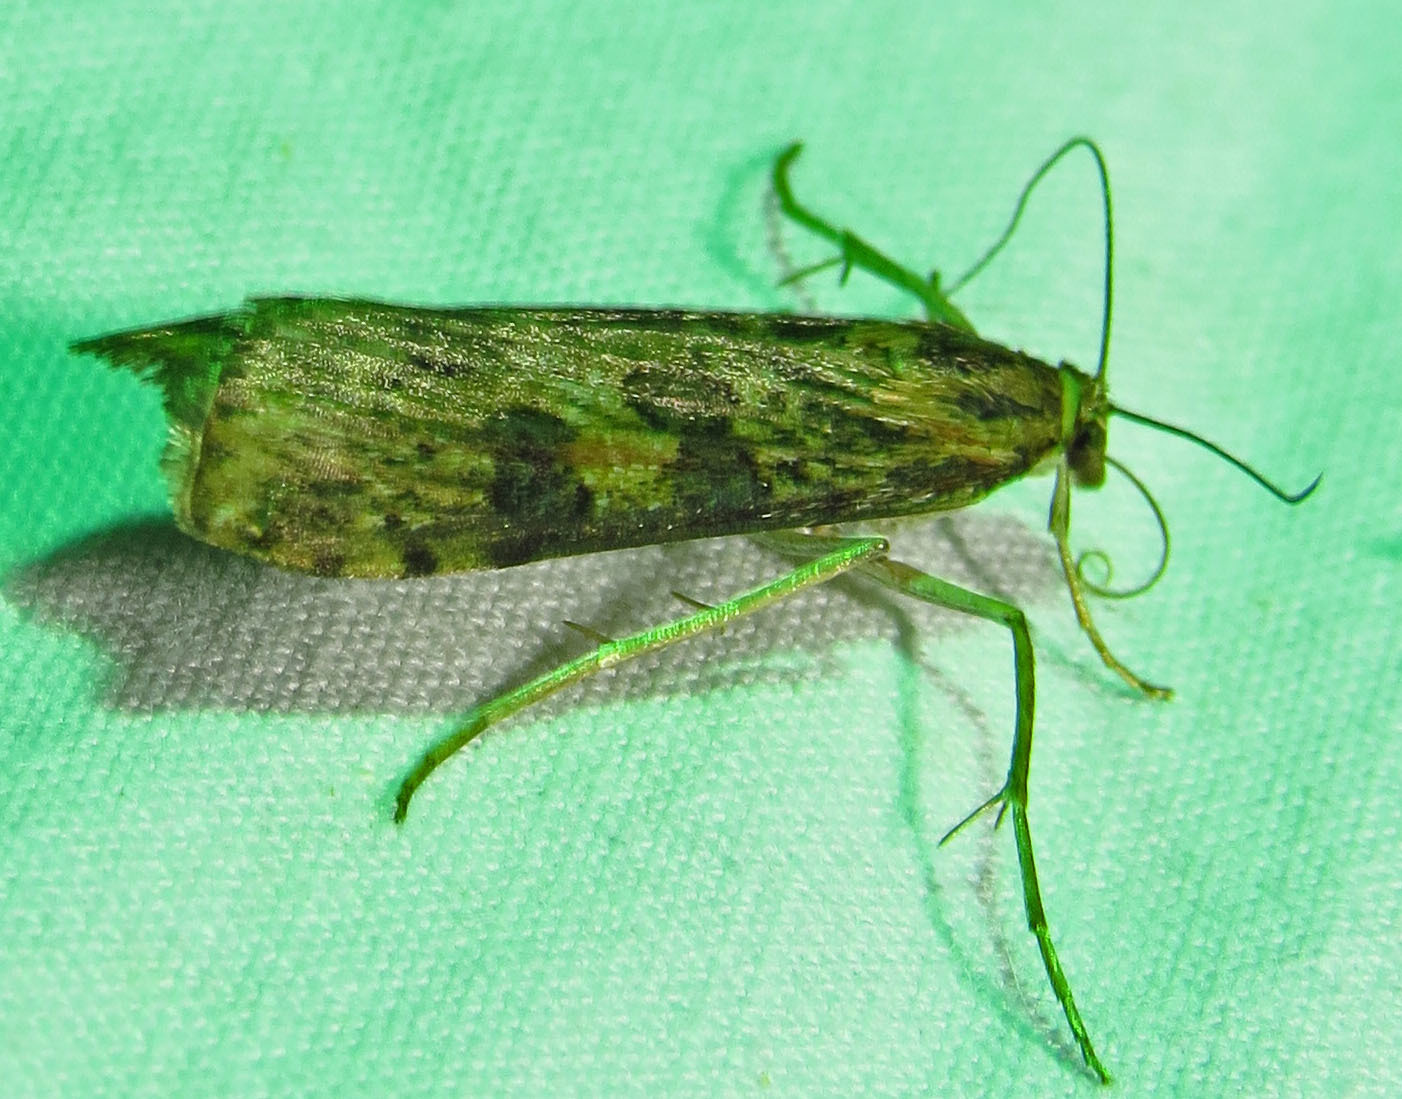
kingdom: Animalia
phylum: Arthropoda
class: Insecta
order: Lepidoptera
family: Crambidae
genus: Nomophila
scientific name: Nomophila nearctica
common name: American rush veneer
